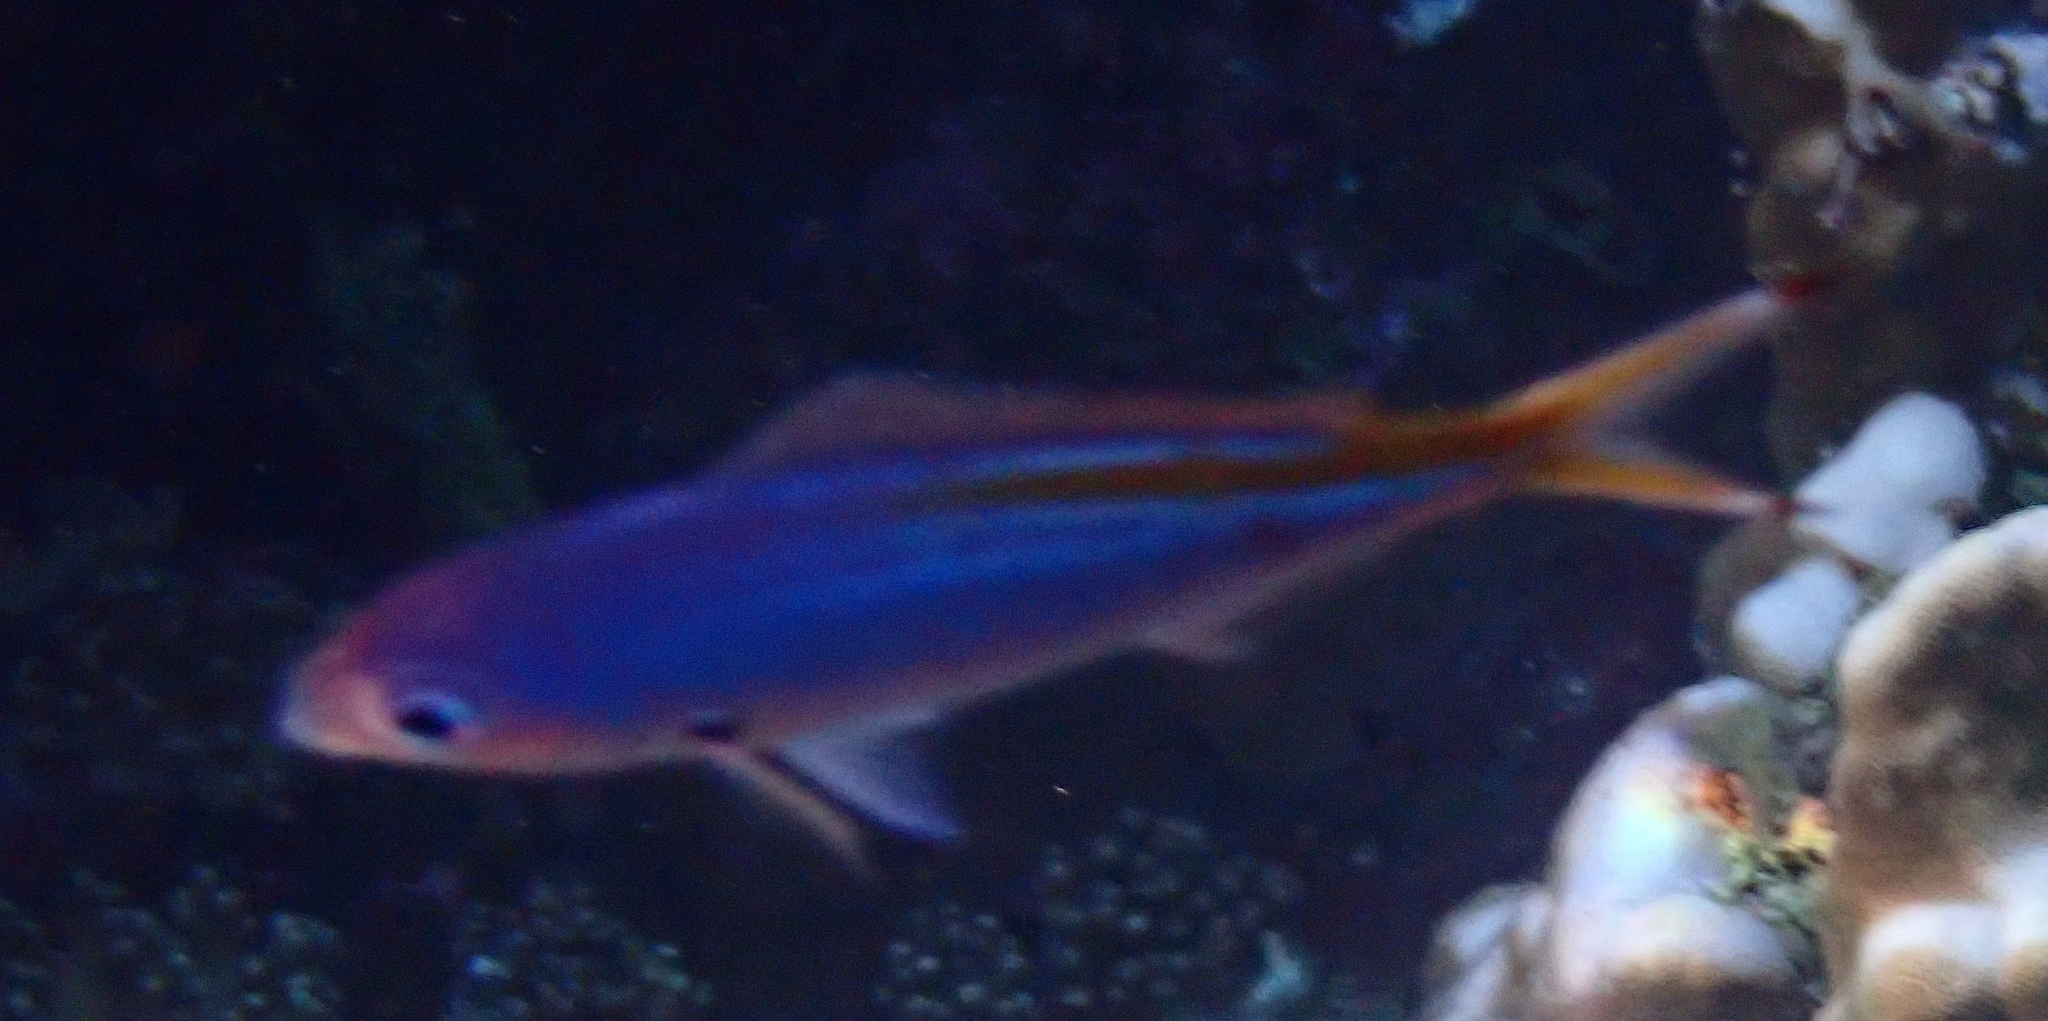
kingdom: Animalia
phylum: Chordata
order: Perciformes
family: Caesionidae
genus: Caesio
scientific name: Caesio suevica
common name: Suez fusilier
